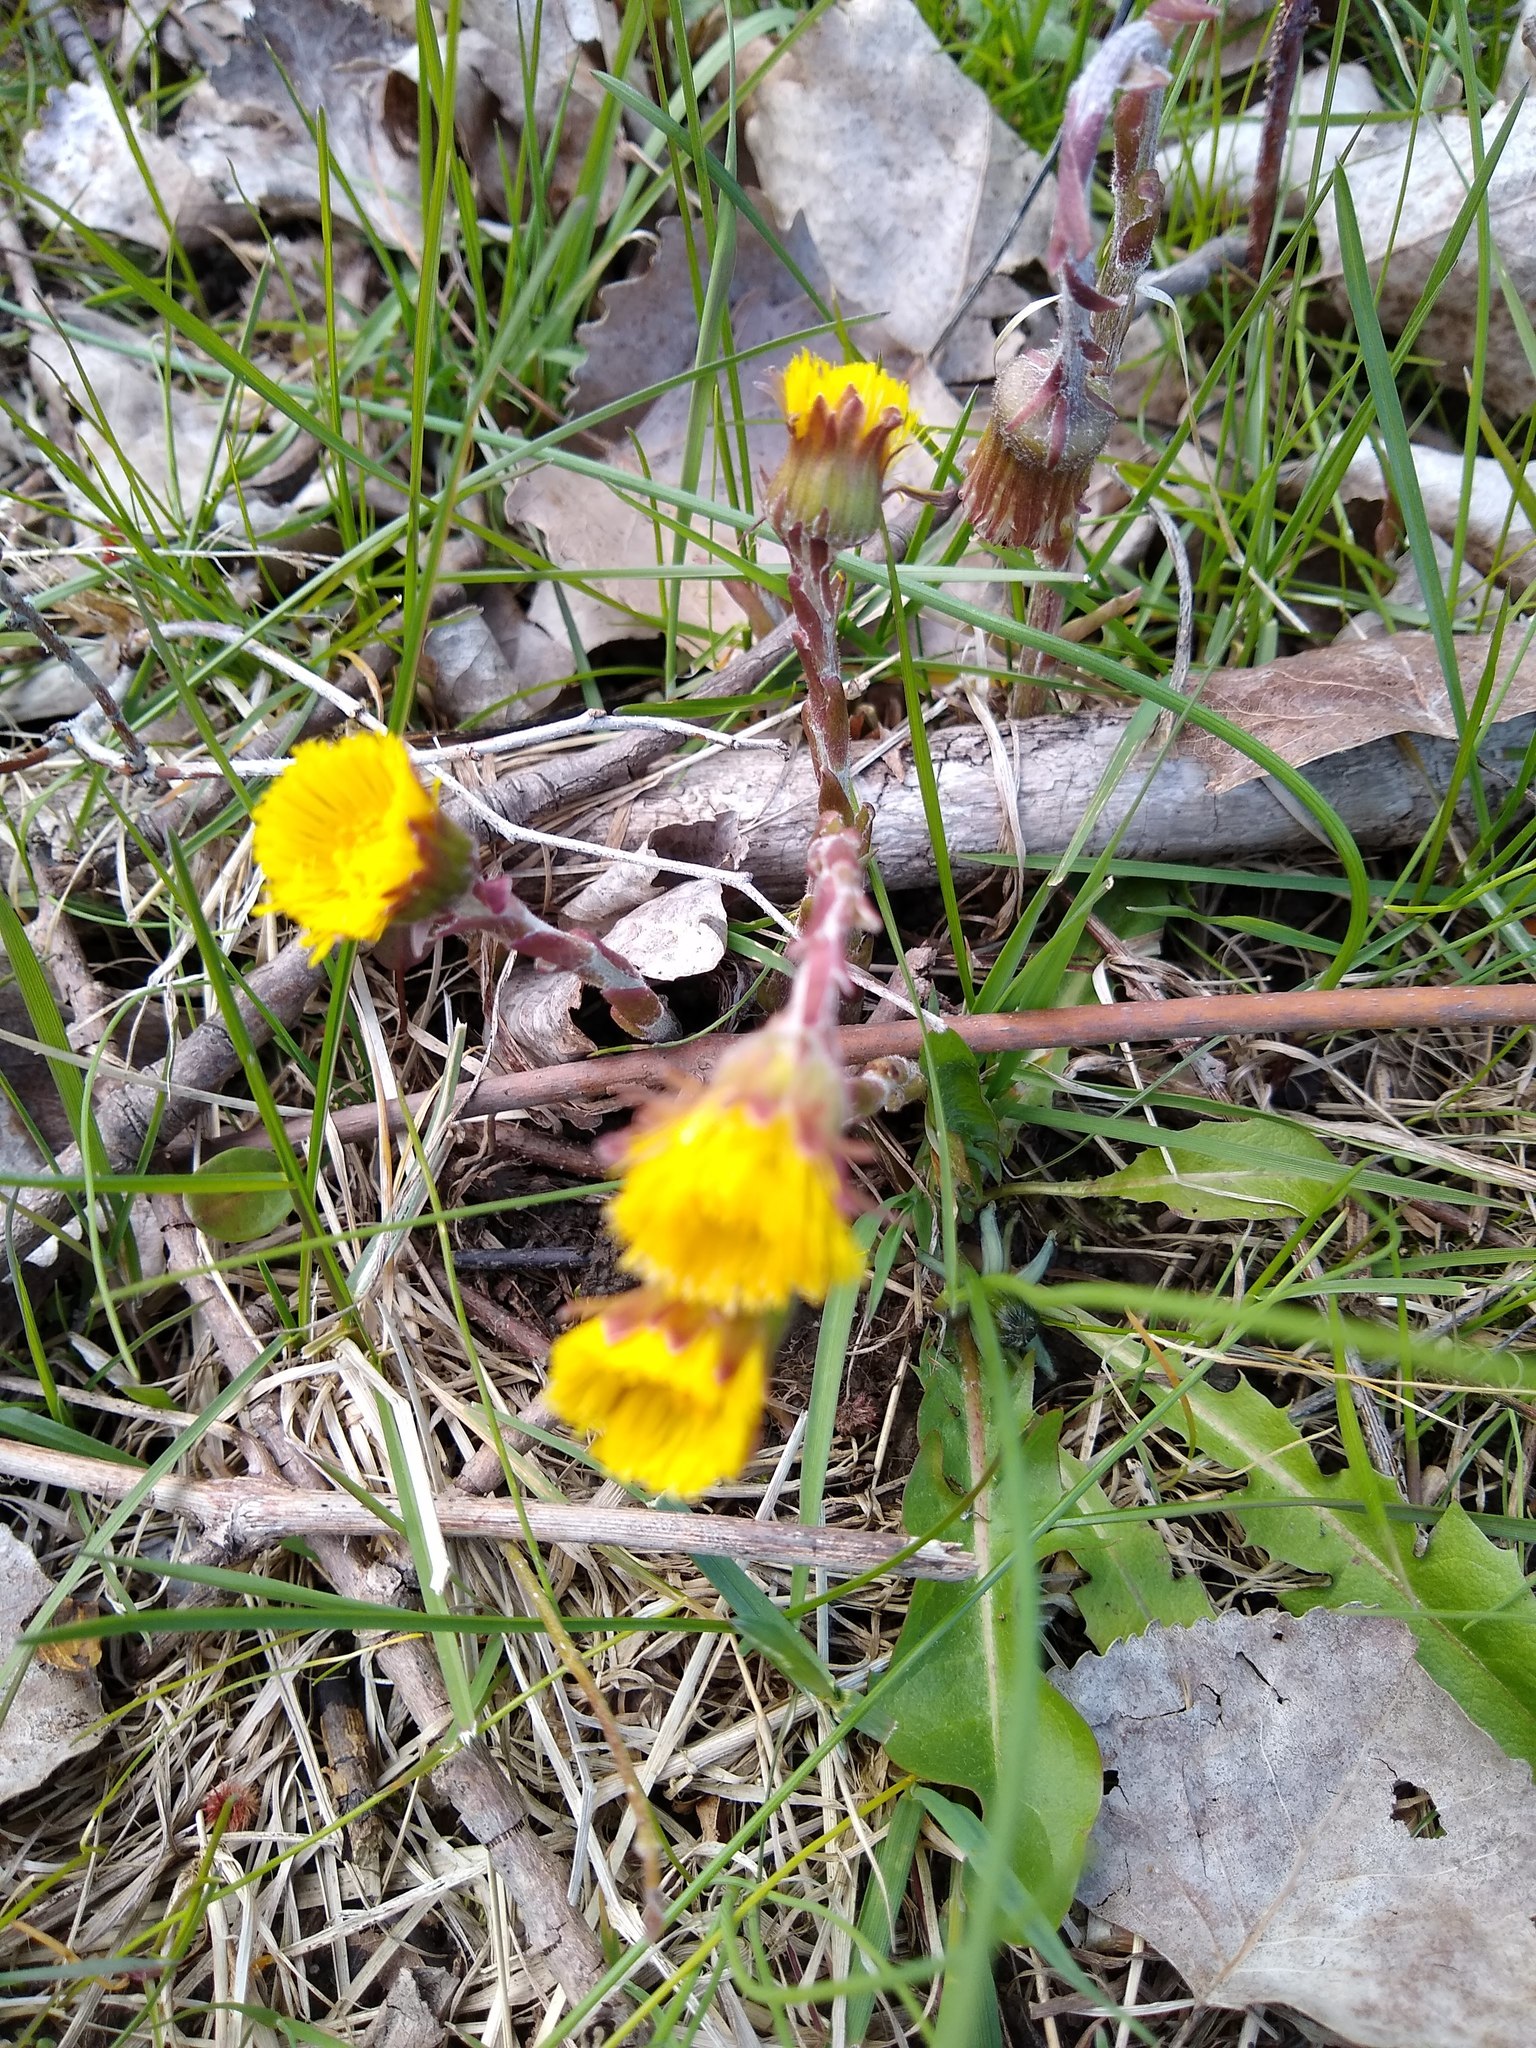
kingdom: Plantae
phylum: Tracheophyta
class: Magnoliopsida
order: Asterales
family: Asteraceae
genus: Tussilago
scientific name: Tussilago farfara
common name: Coltsfoot
